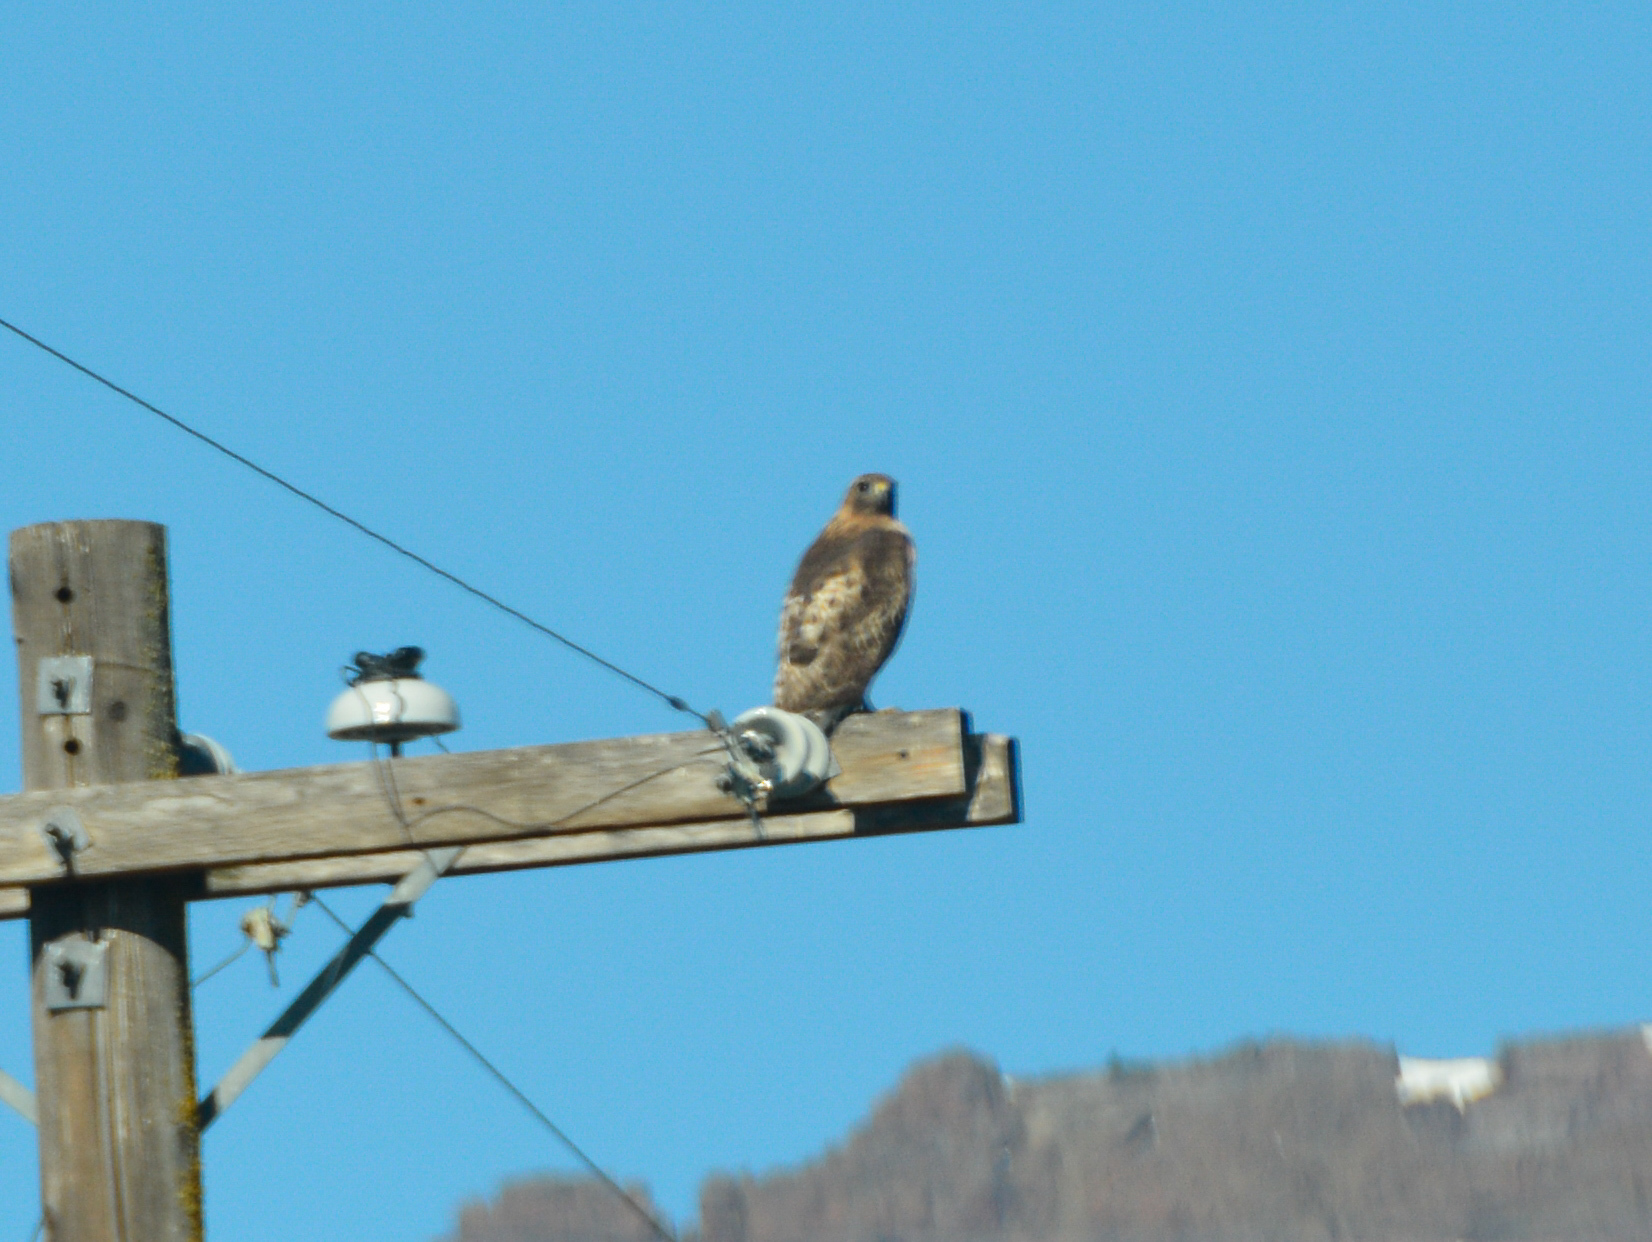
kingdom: Animalia
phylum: Chordata
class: Aves
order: Accipitriformes
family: Accipitridae
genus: Buteo
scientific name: Buteo jamaicensis
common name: Red-tailed hawk
